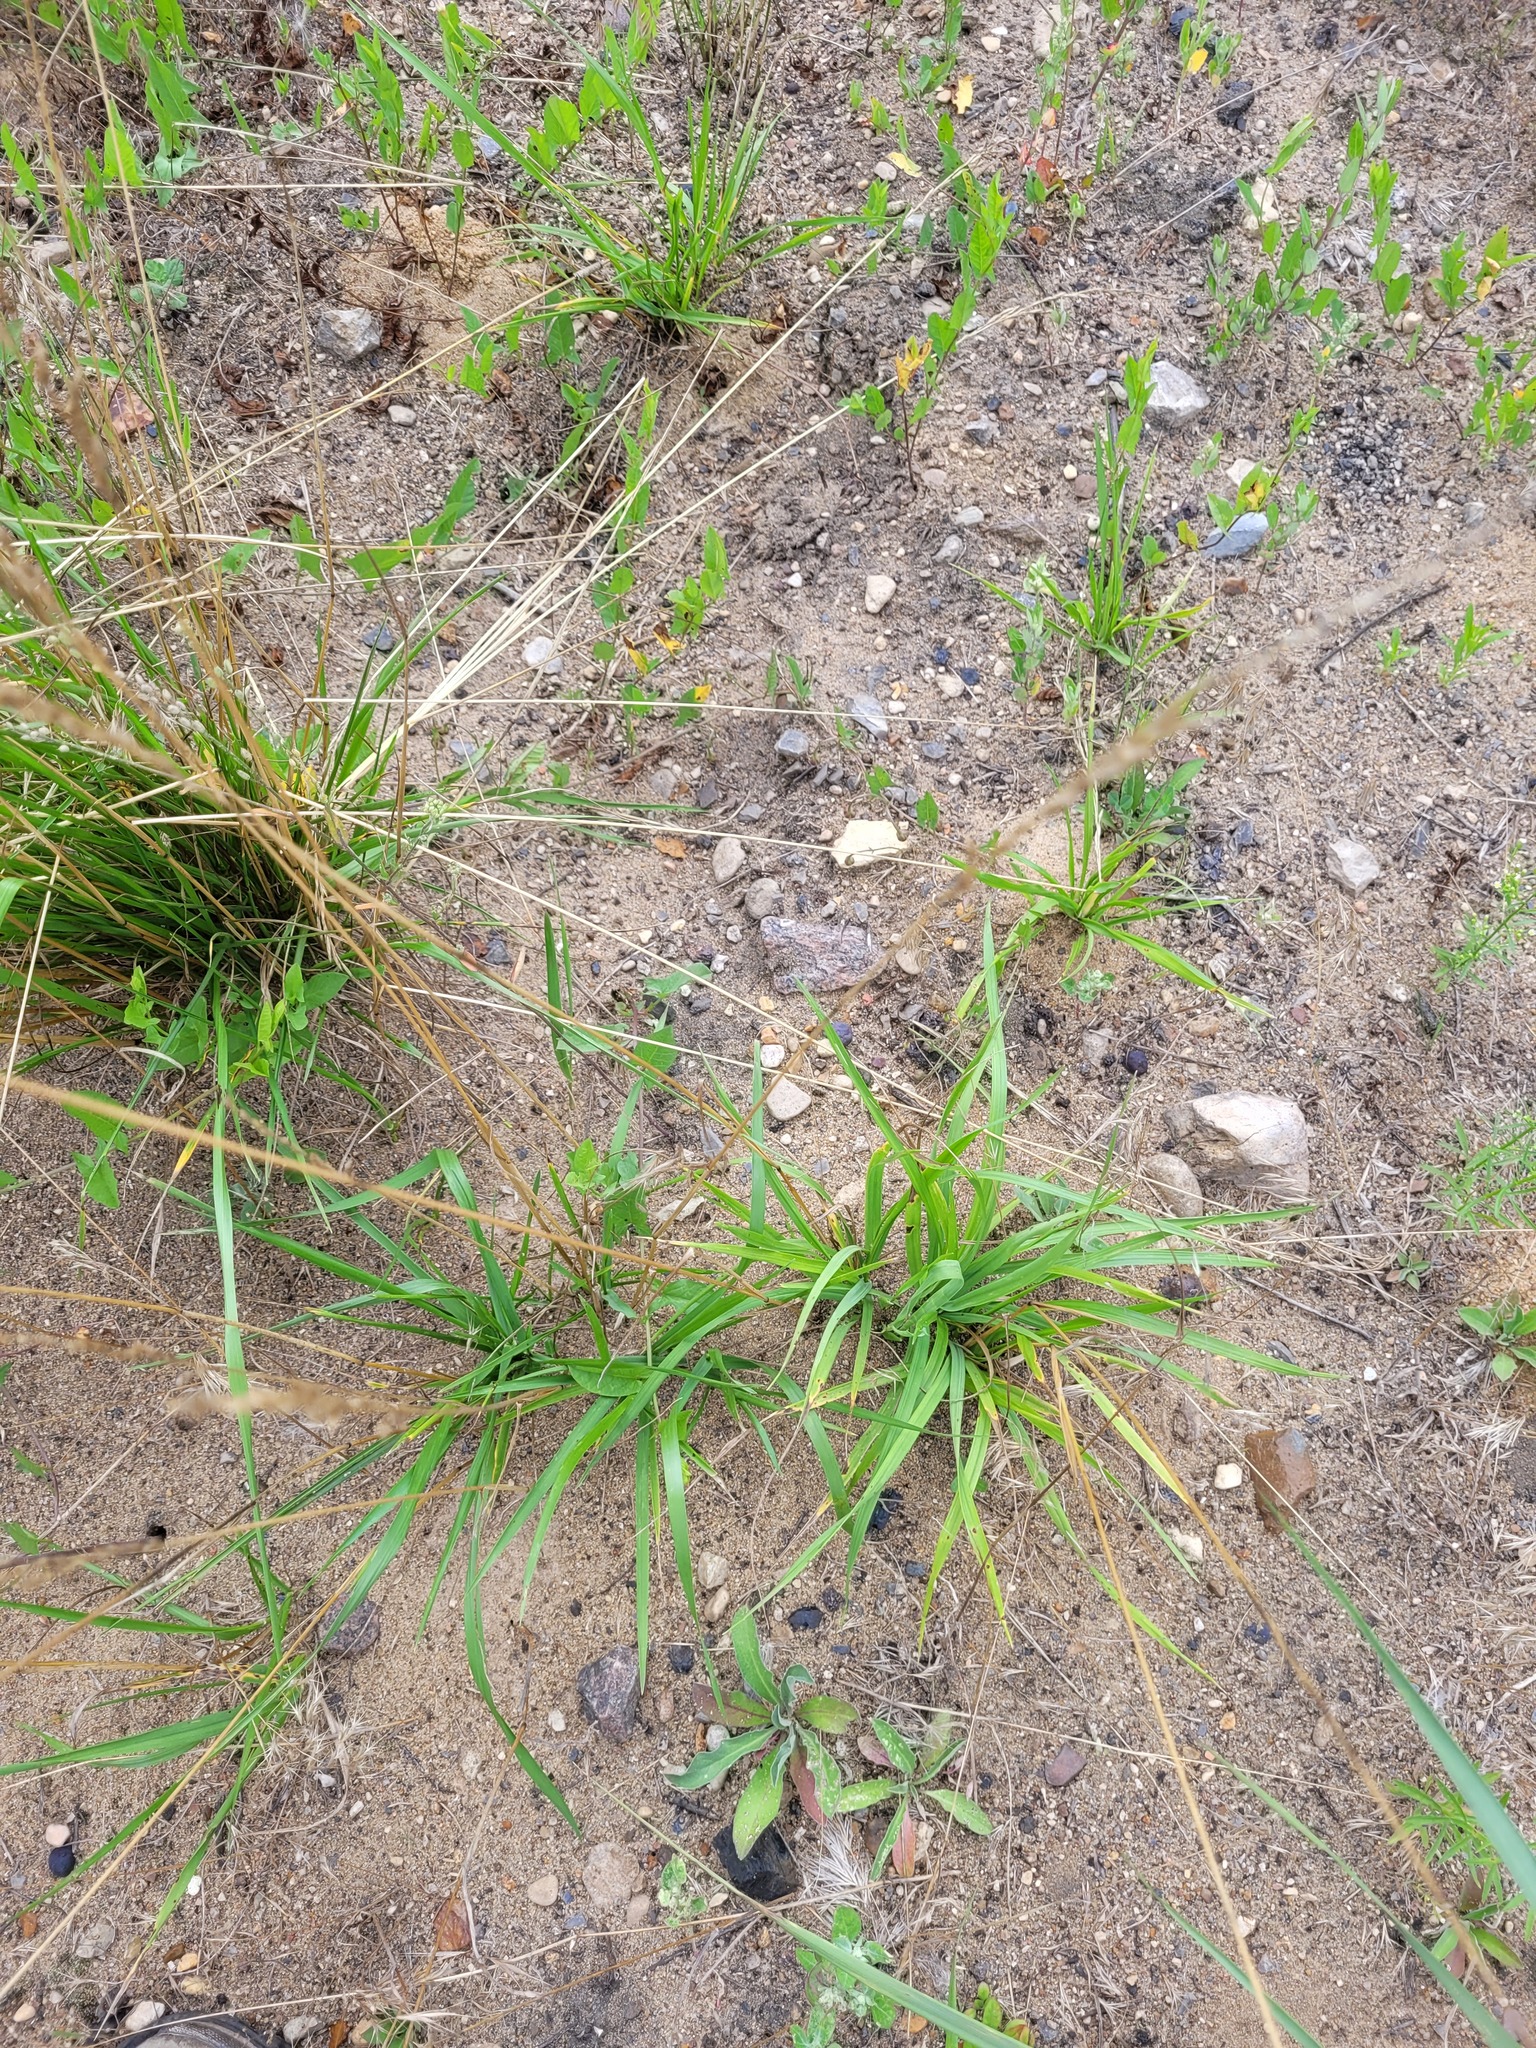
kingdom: Plantae
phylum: Tracheophyta
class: Liliopsida
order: Poales
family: Poaceae
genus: Lolium
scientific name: Lolium pratense
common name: Dover grass
